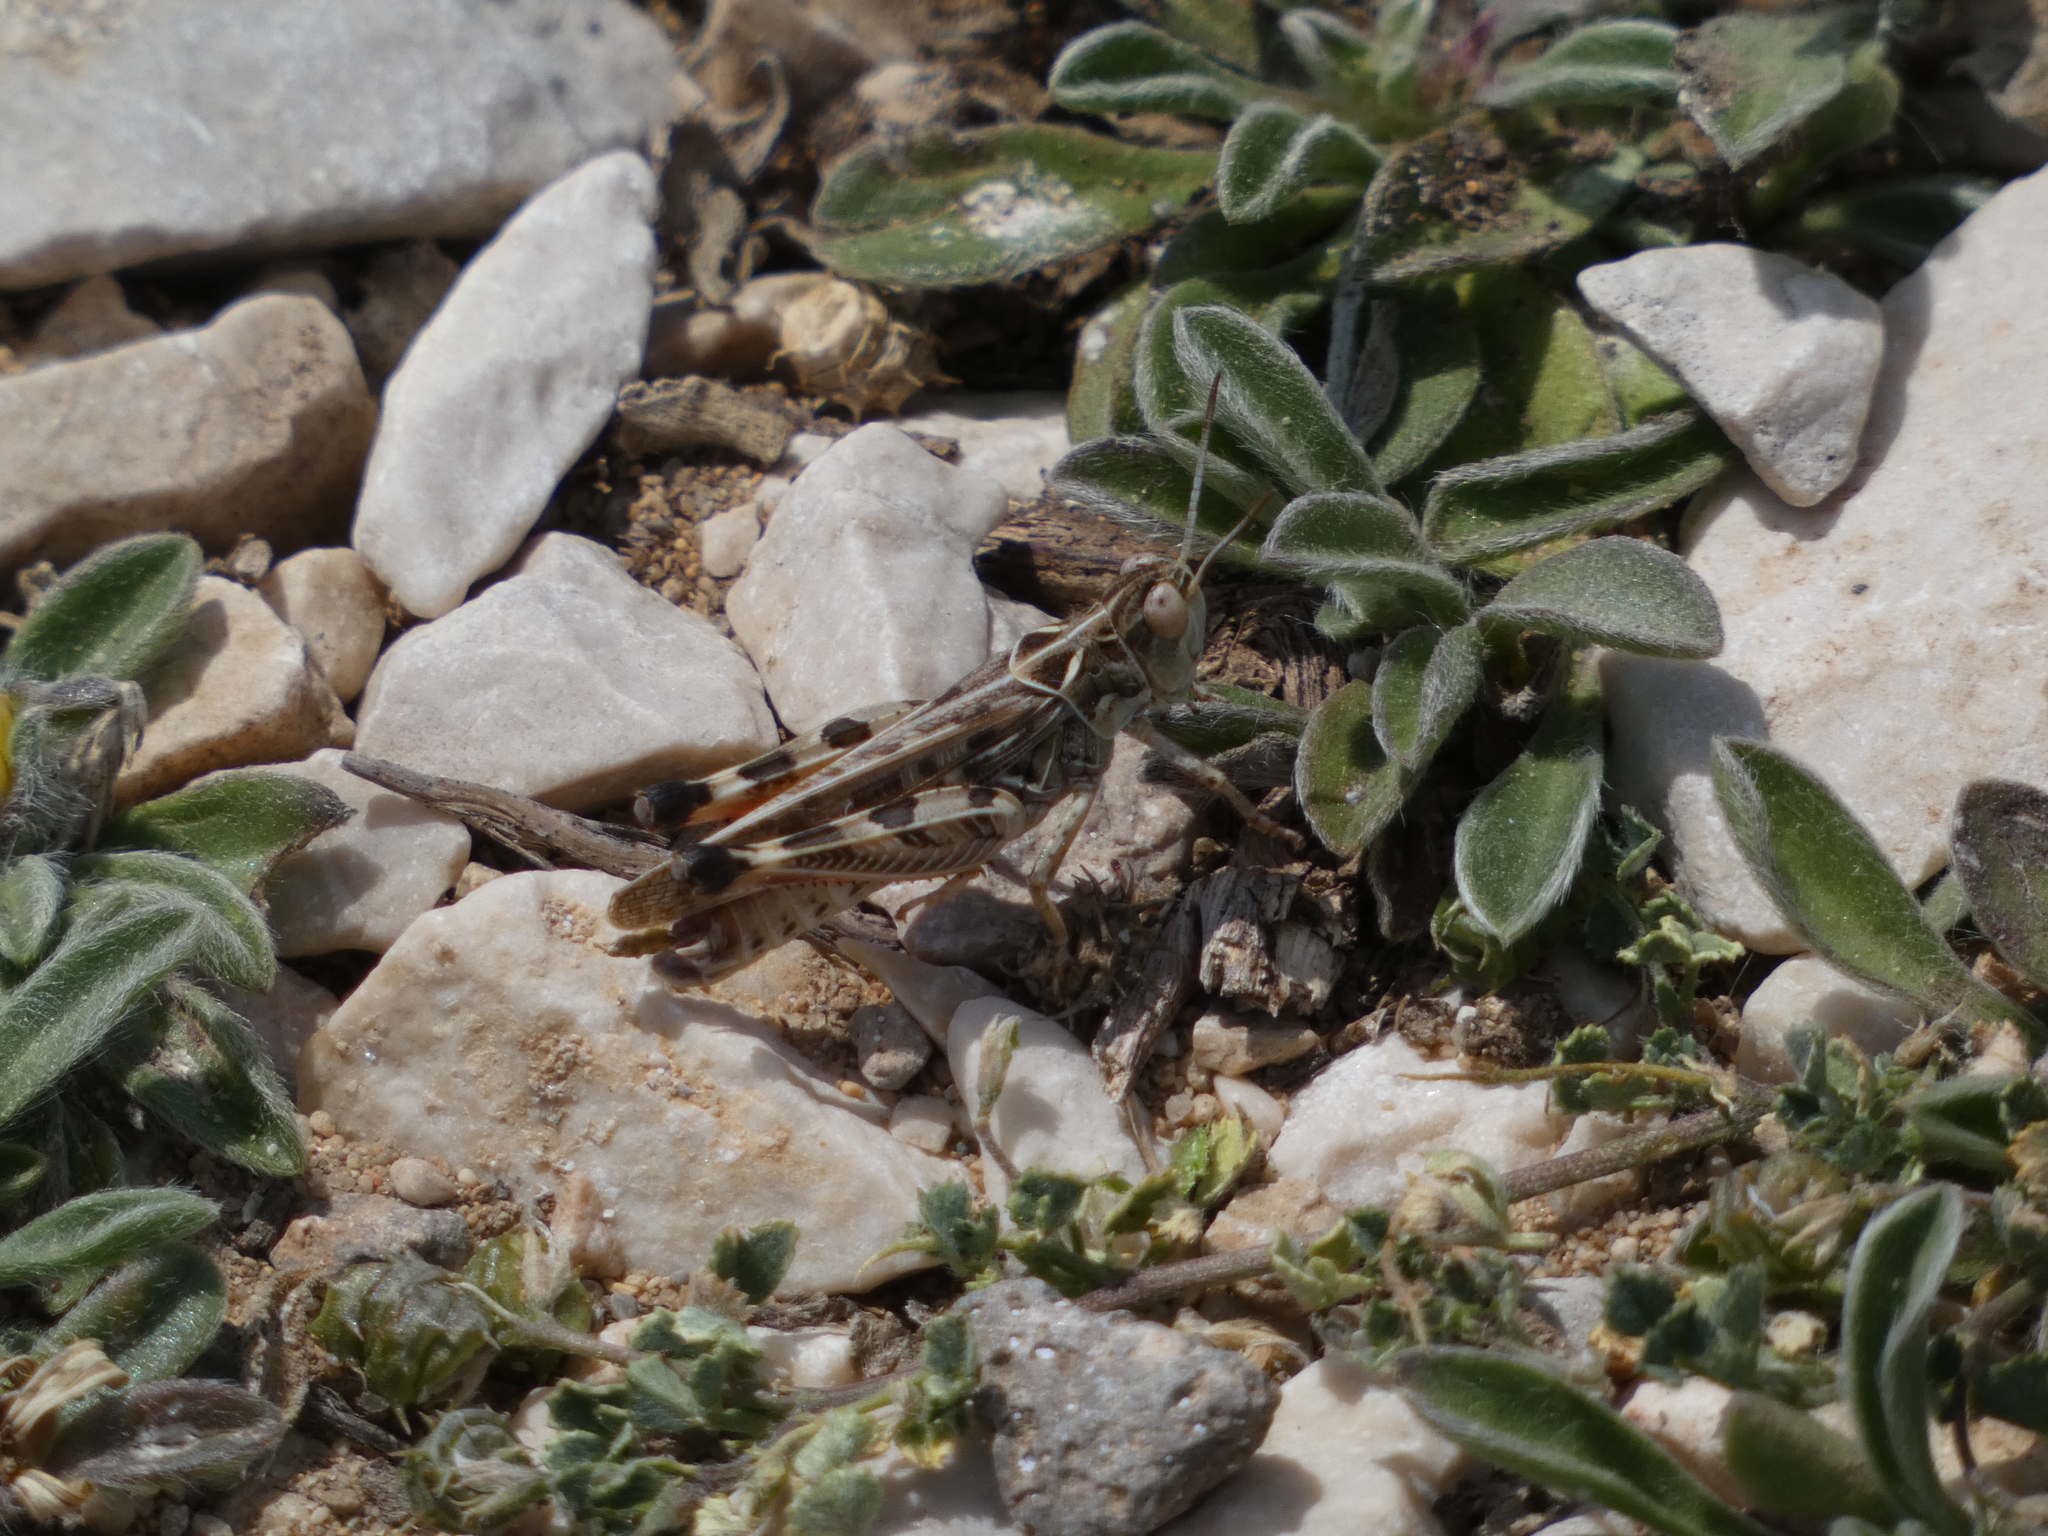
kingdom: Animalia
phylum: Arthropoda
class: Insecta
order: Orthoptera
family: Acrididae
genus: Dociostaurus
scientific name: Dociostaurus maroccanus
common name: Moroccan locust
